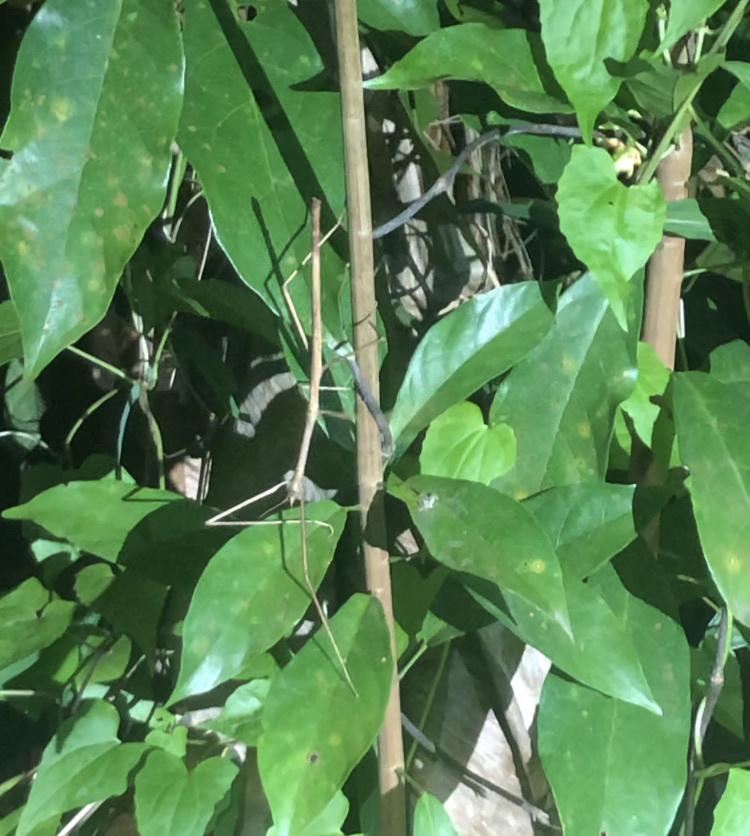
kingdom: Animalia
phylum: Arthropoda
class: Insecta
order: Phasmida
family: Phasmatidae
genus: Ramulus
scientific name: Ramulus rotundus
